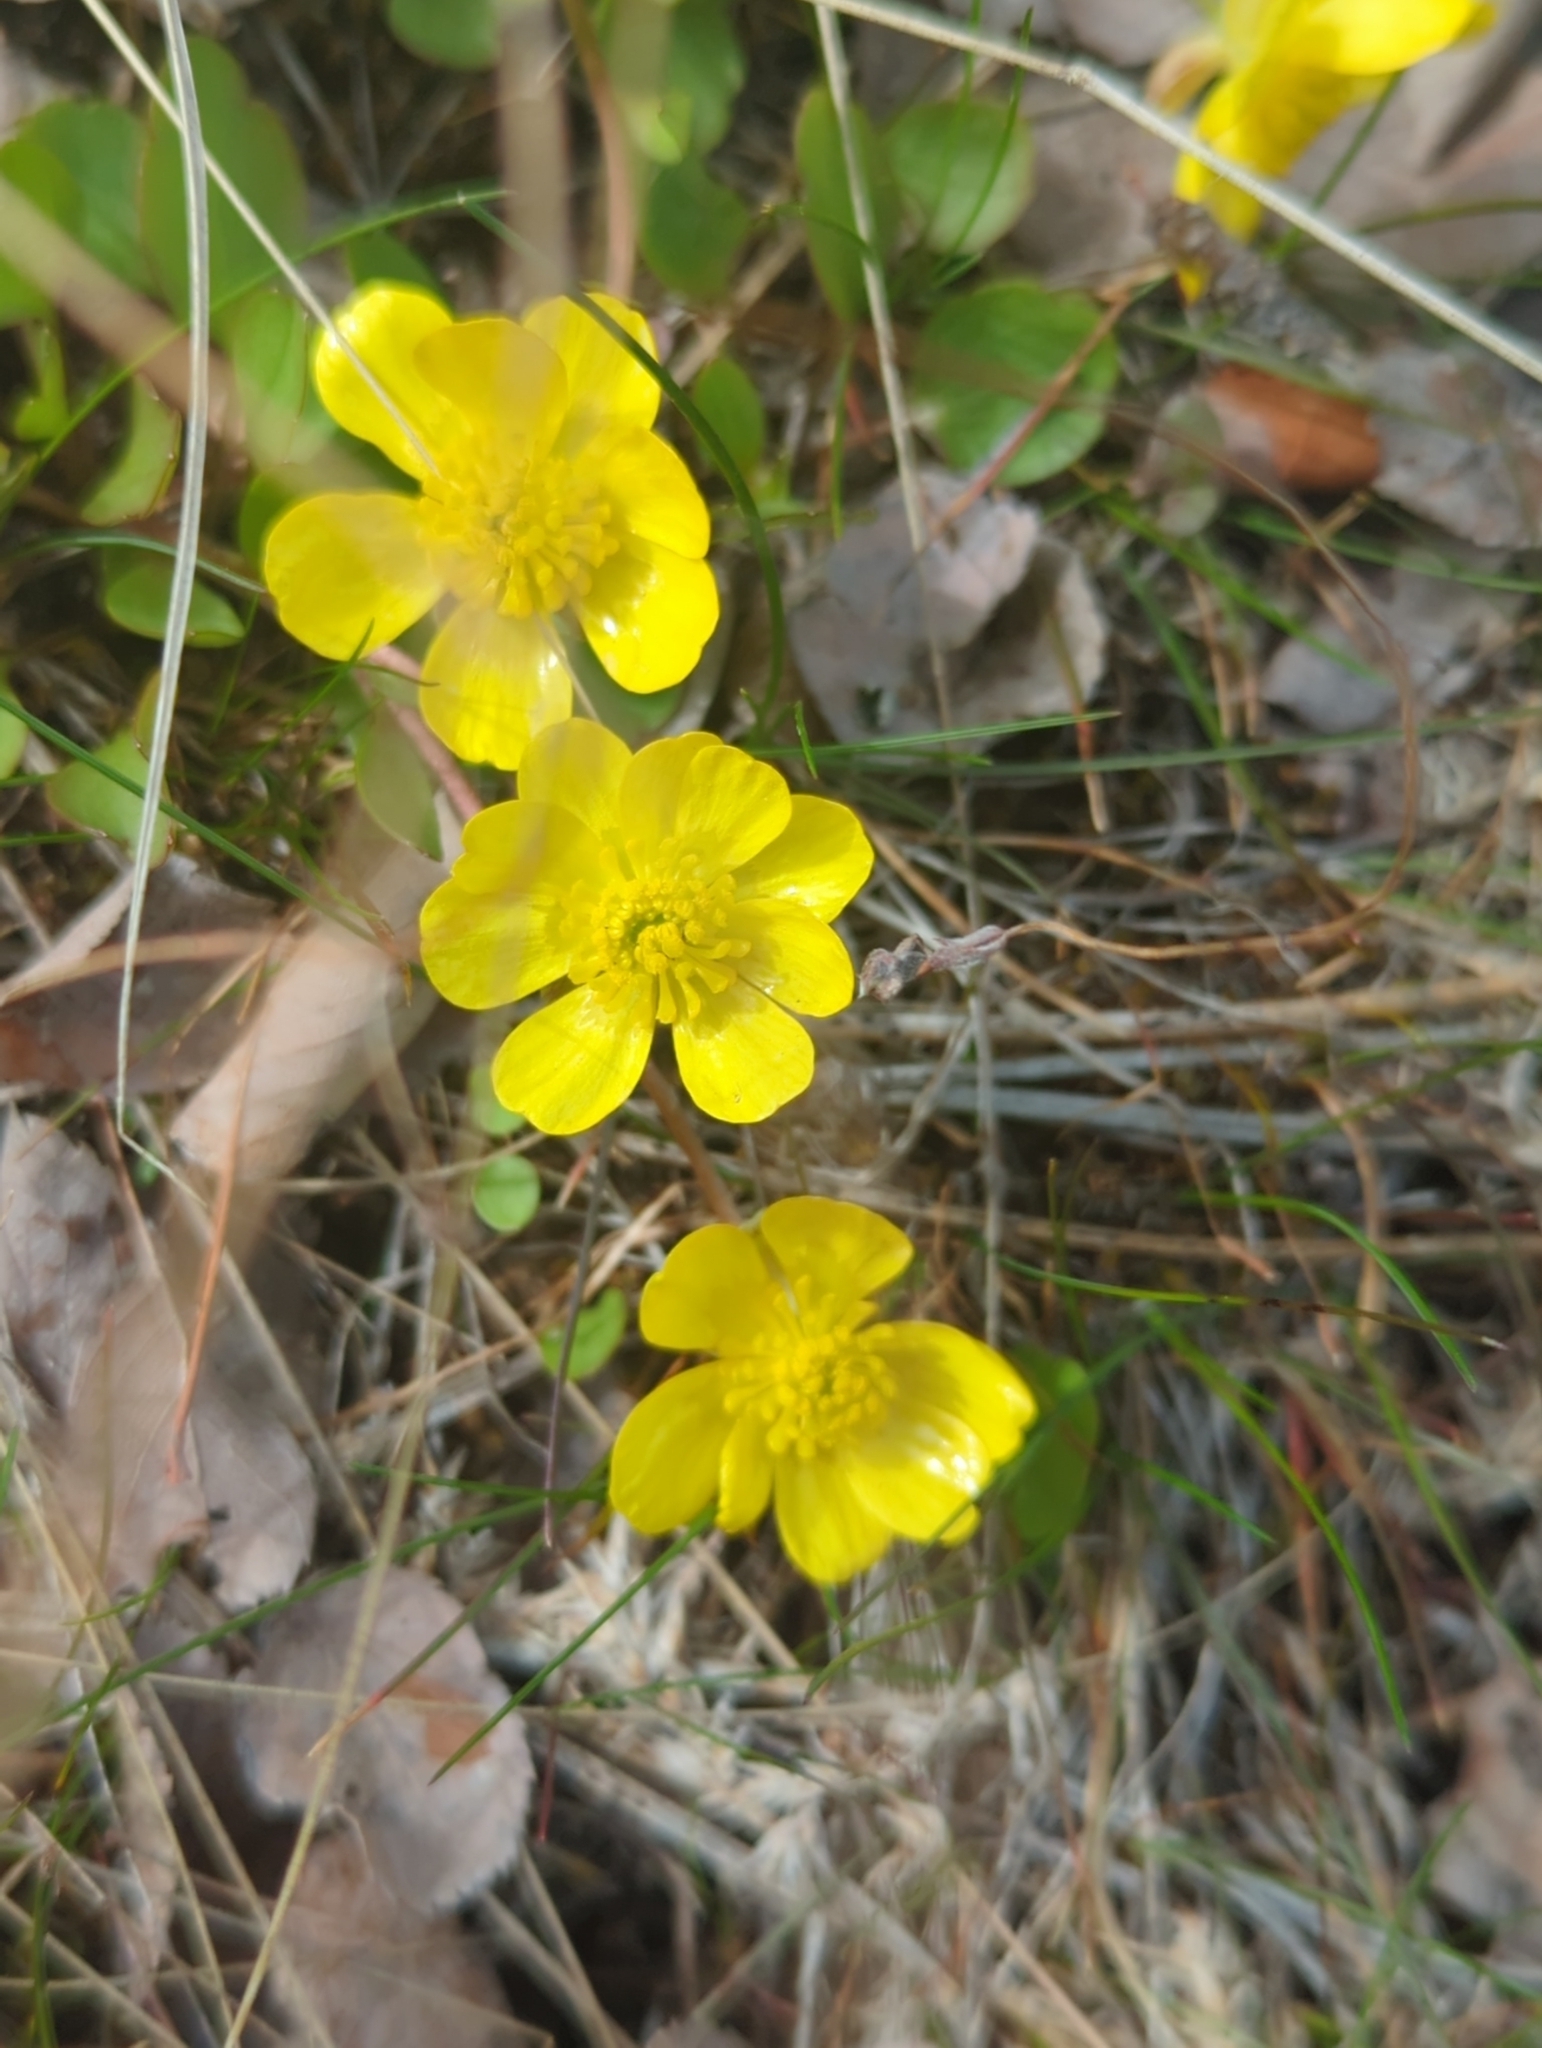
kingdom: Plantae
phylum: Tracheophyta
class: Magnoliopsida
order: Ranunculales
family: Ranunculaceae
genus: Ranunculus
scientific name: Ranunculus glaberrimus
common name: Sagebrush buttercup
